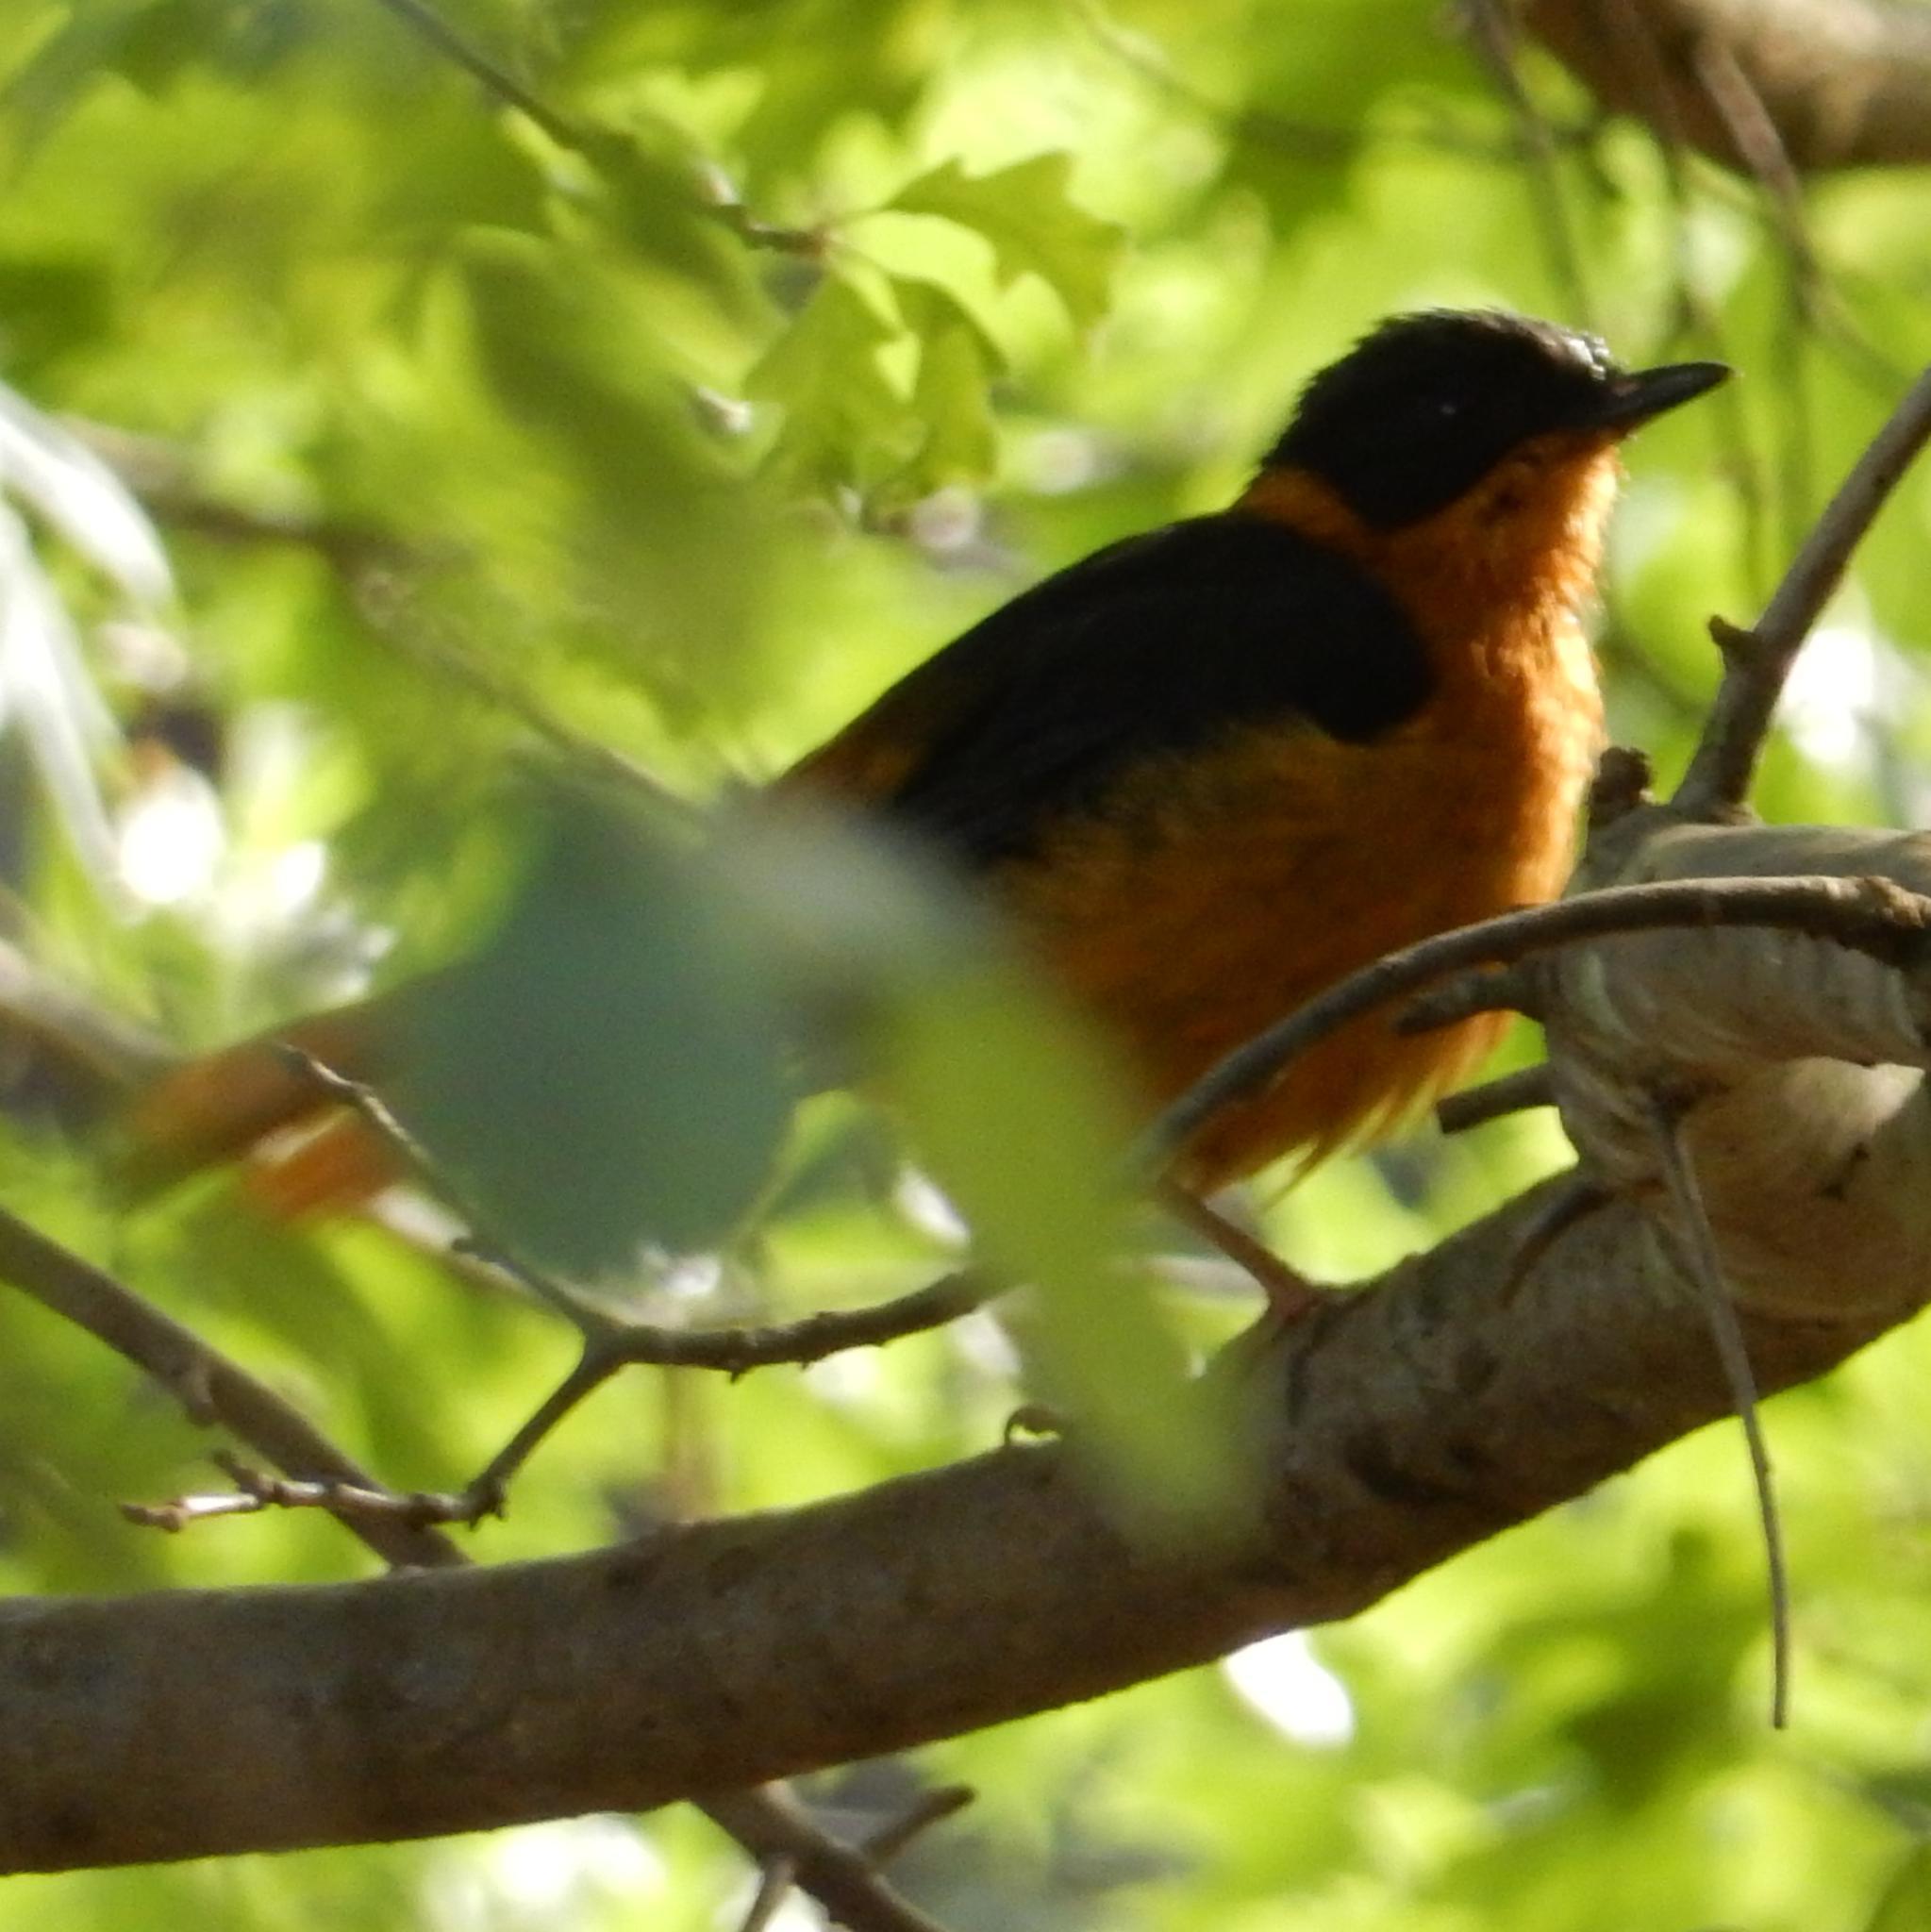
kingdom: Animalia
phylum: Chordata
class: Aves
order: Passeriformes
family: Muscicapidae
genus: Cossypha
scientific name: Cossypha dichroa
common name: Chorister robin-chat
